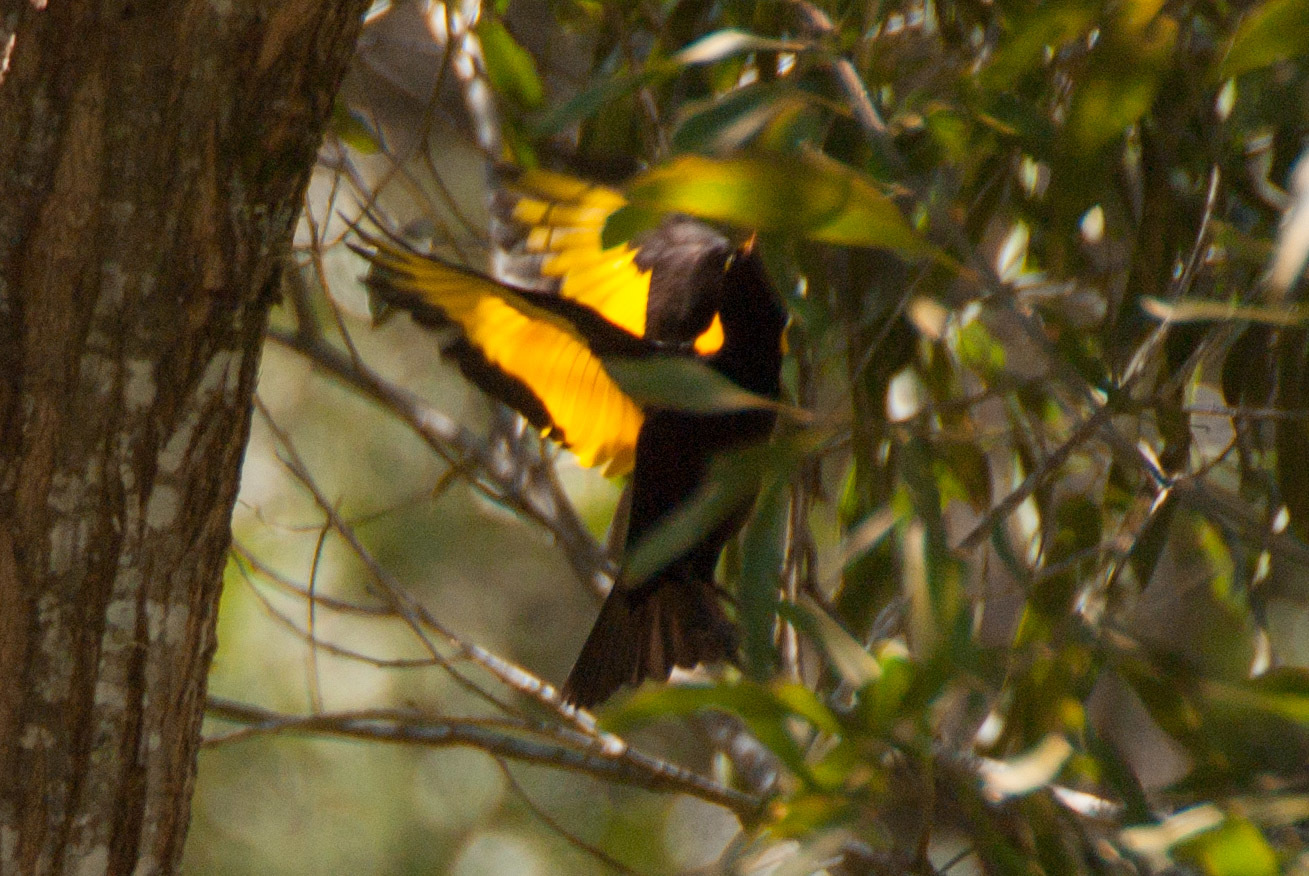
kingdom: Animalia
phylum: Chordata
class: Aves
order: Passeriformes
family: Ptilonorhynchidae
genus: Sericulus
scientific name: Sericulus chrysocephalus
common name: Regent bowerbird
